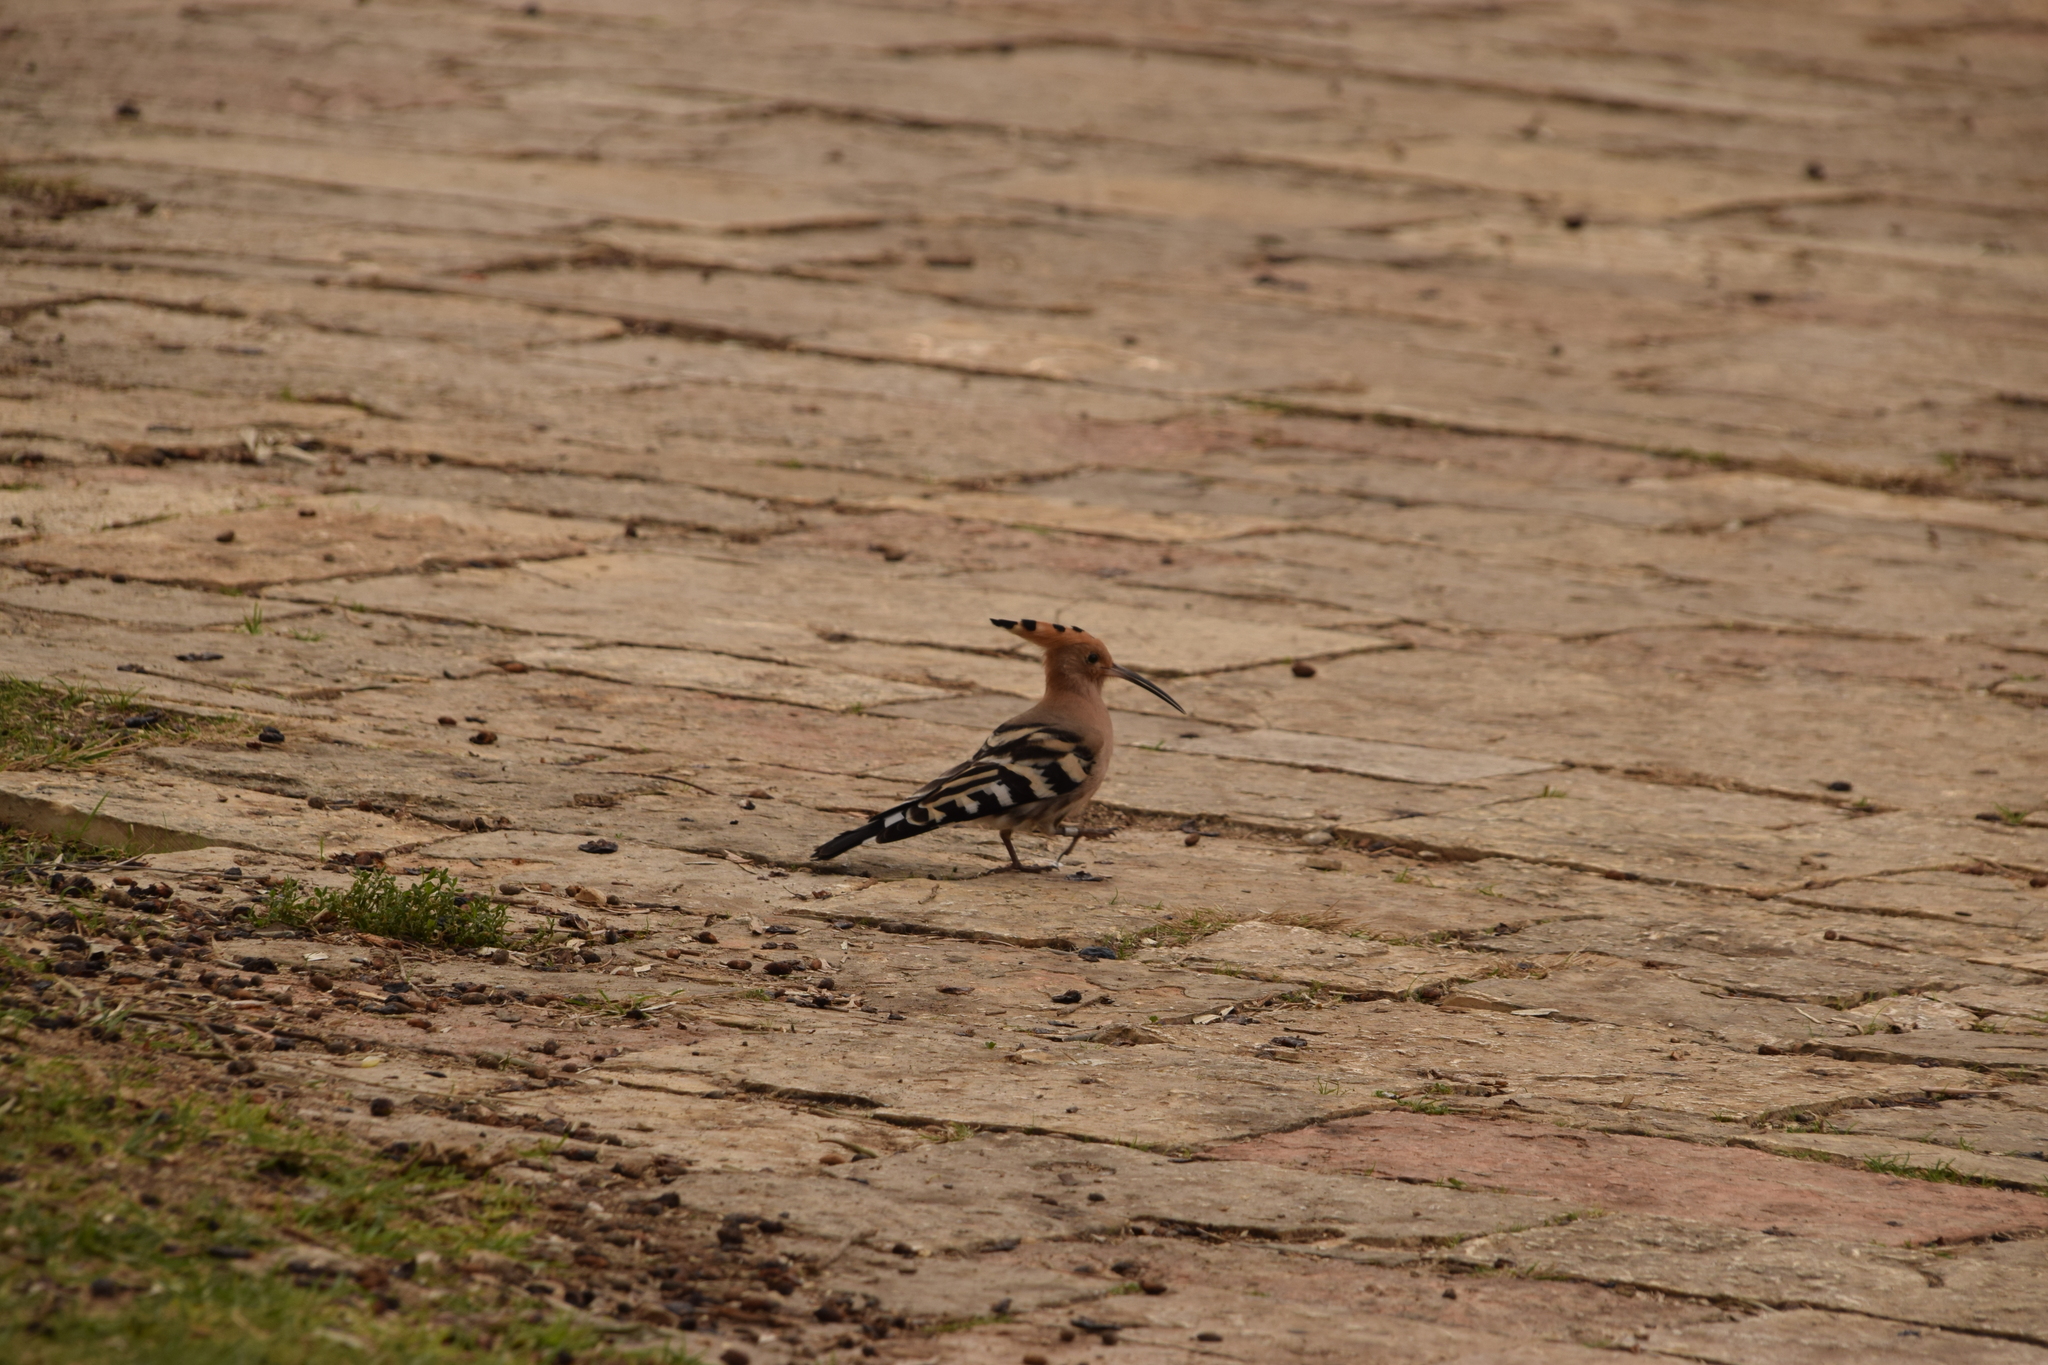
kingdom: Animalia
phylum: Chordata
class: Aves
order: Bucerotiformes
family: Upupidae
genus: Upupa
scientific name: Upupa epops
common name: Eurasian hoopoe
